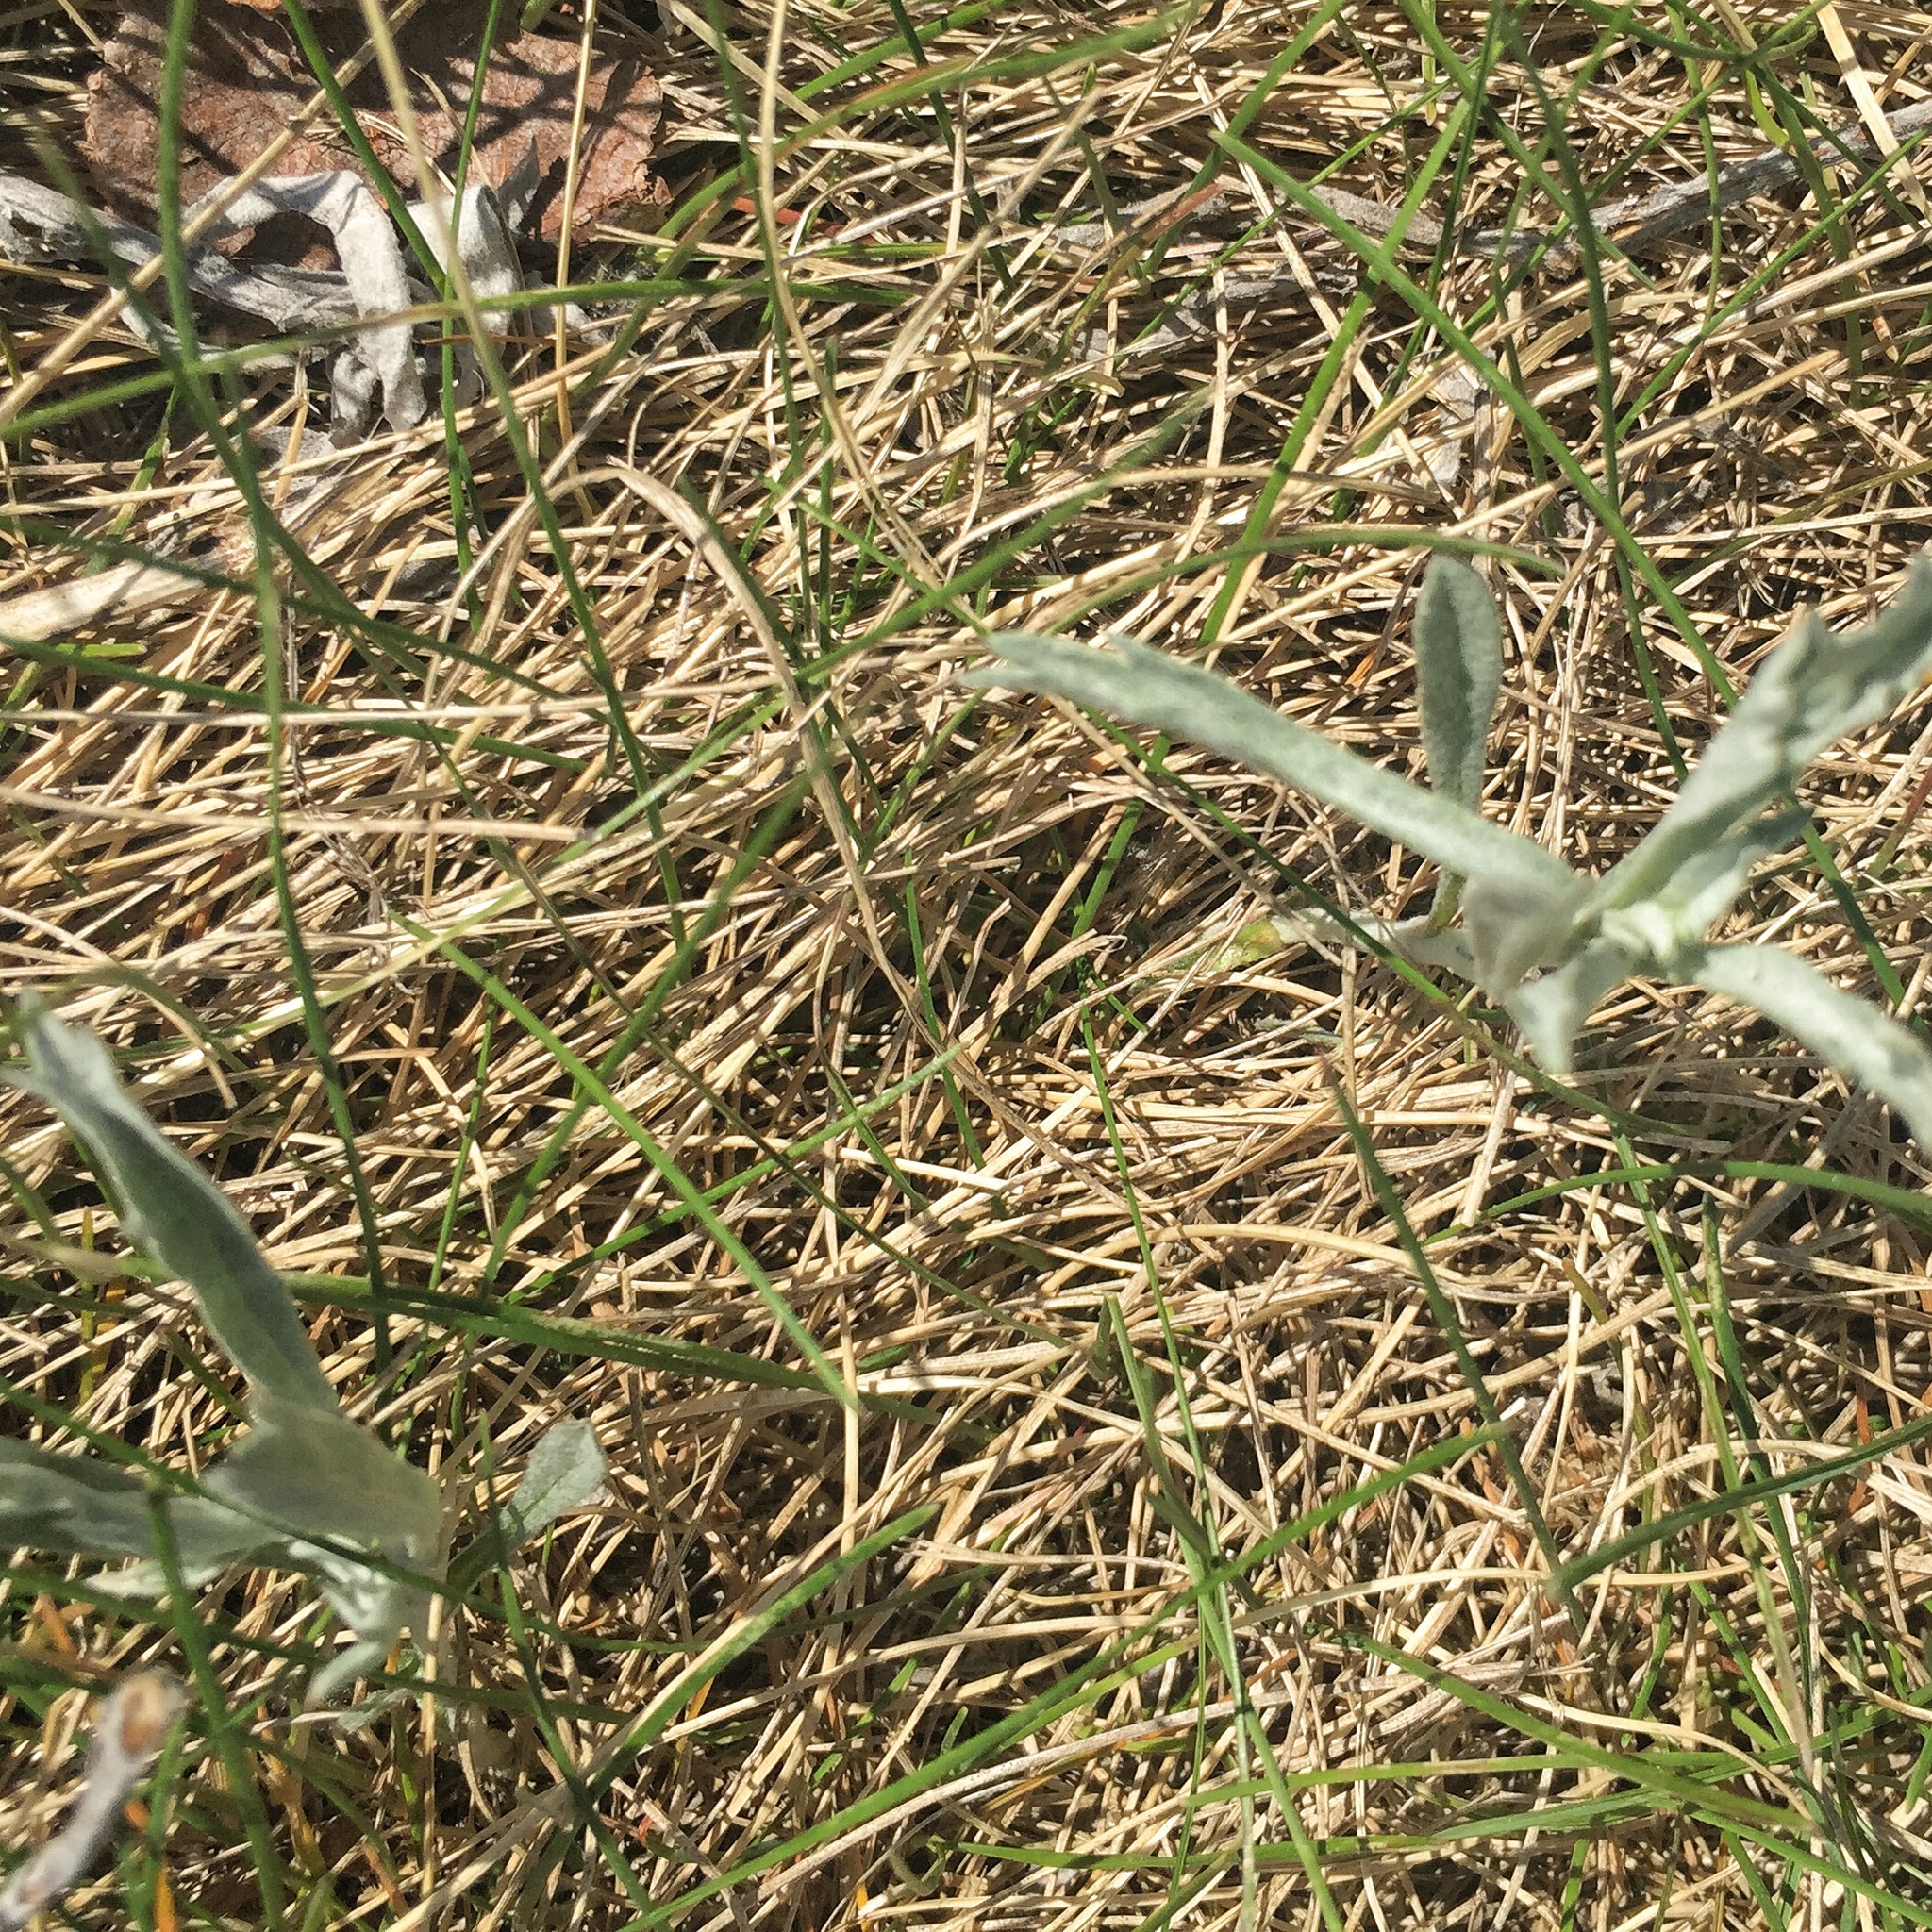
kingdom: Plantae
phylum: Tracheophyta
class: Magnoliopsida
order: Asterales
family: Asteraceae
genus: Artemisia
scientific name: Artemisia ludoviciana
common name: Western mugwort
